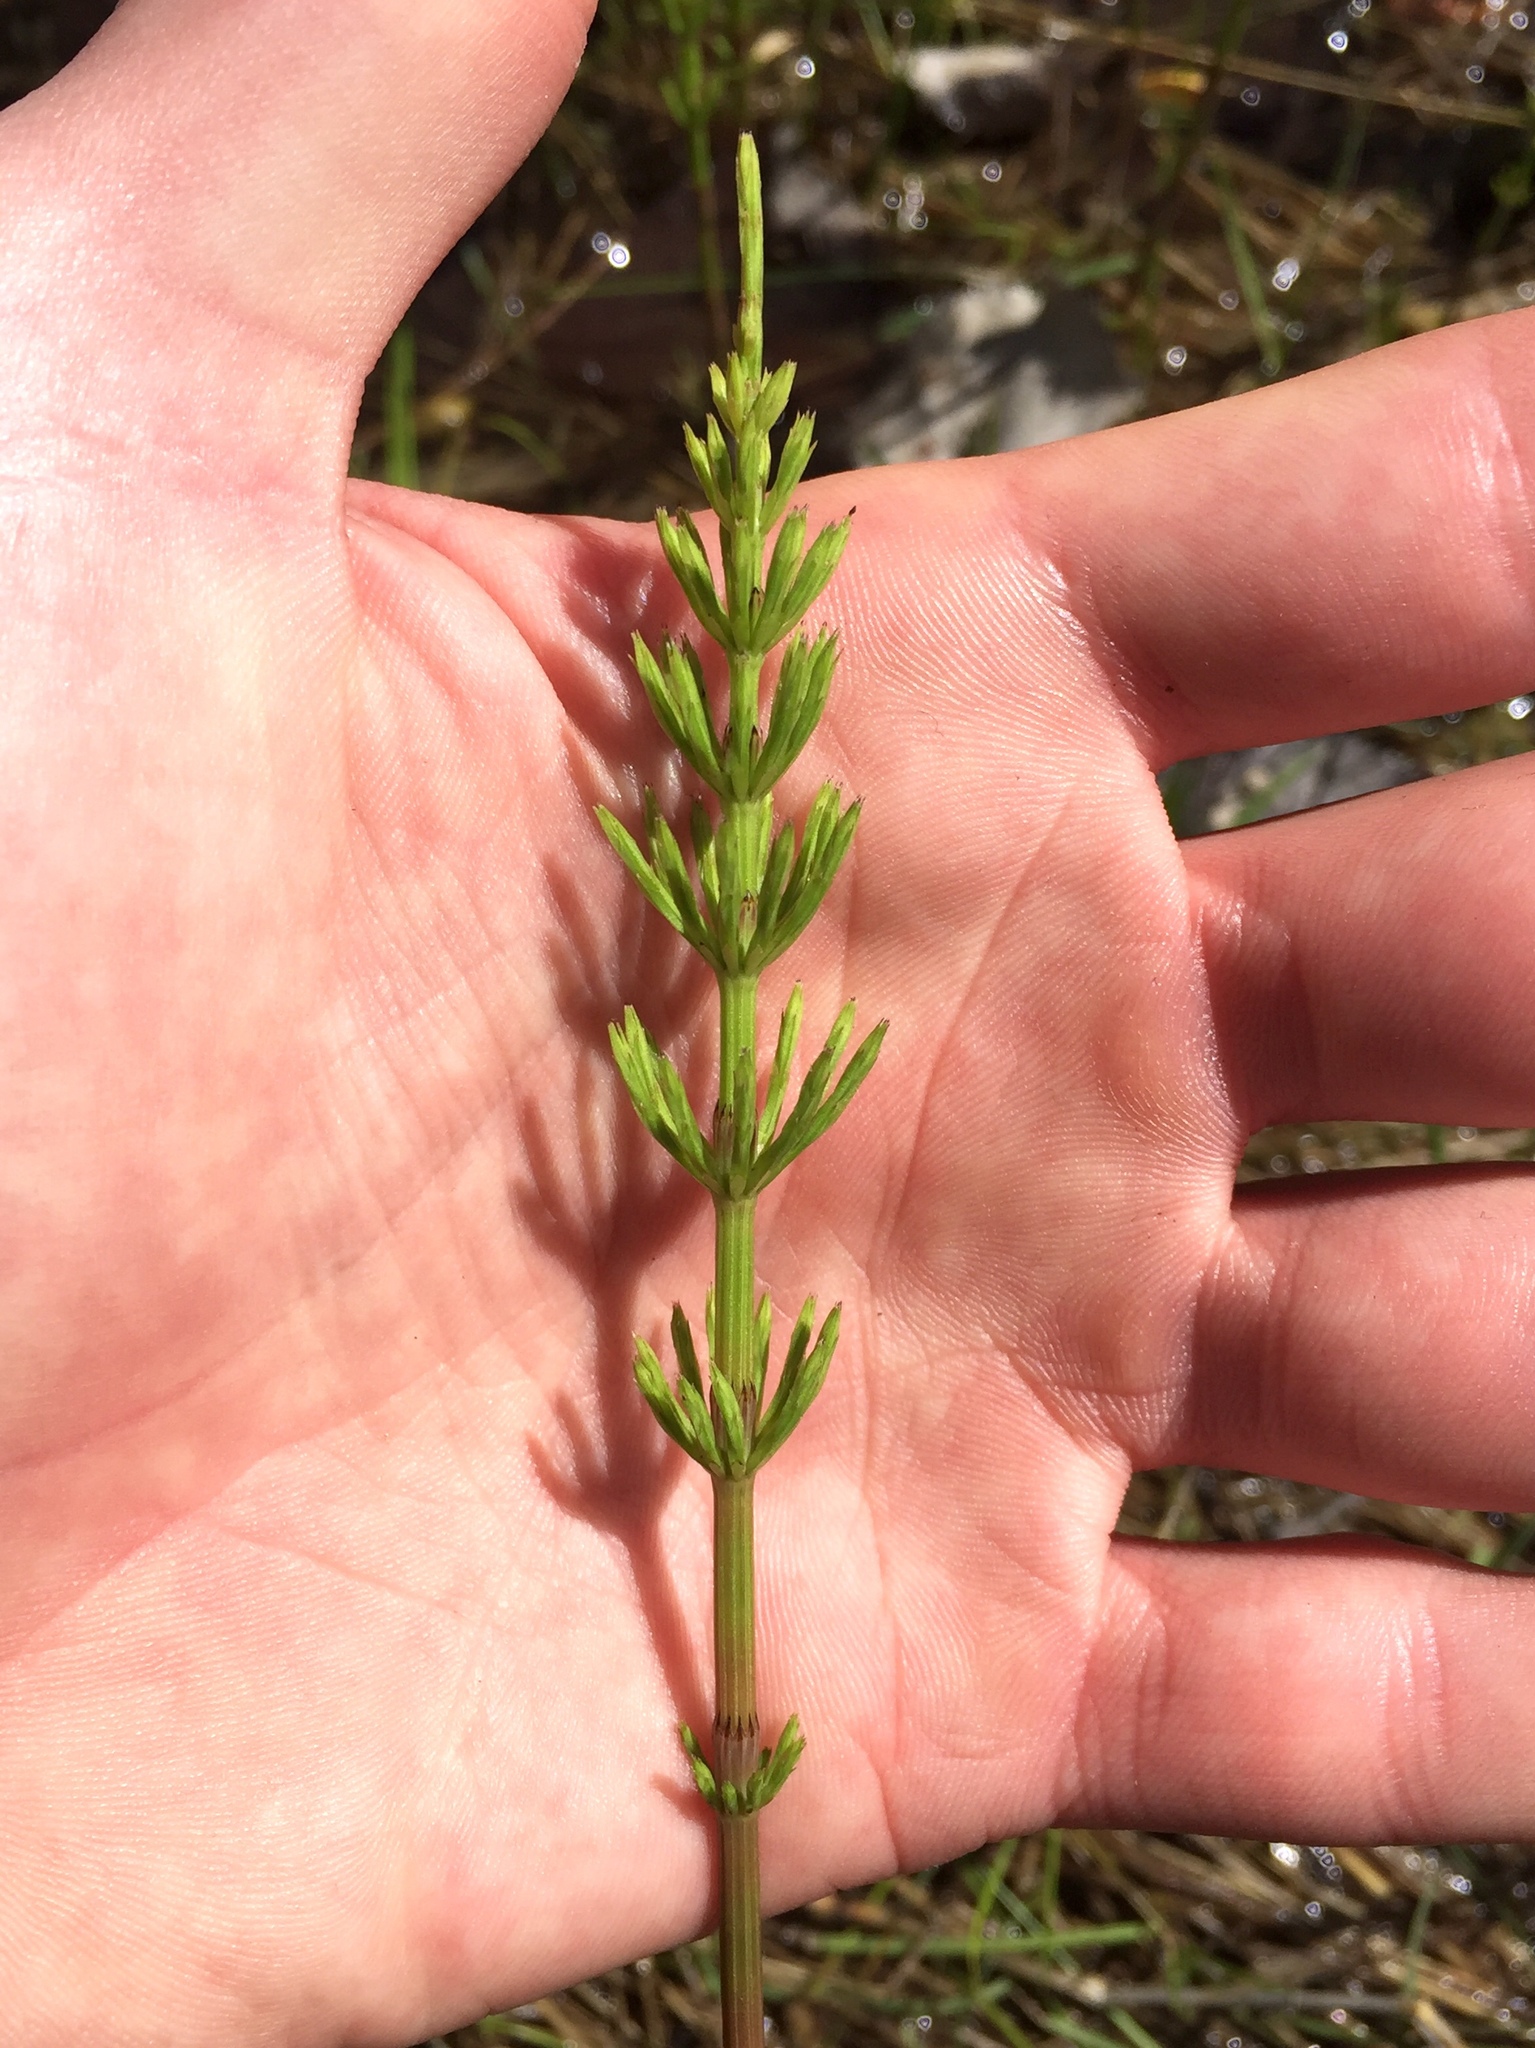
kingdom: Plantae
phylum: Tracheophyta
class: Polypodiopsida
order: Equisetales
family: Equisetaceae
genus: Equisetum
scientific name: Equisetum arvense
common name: Field horsetail
